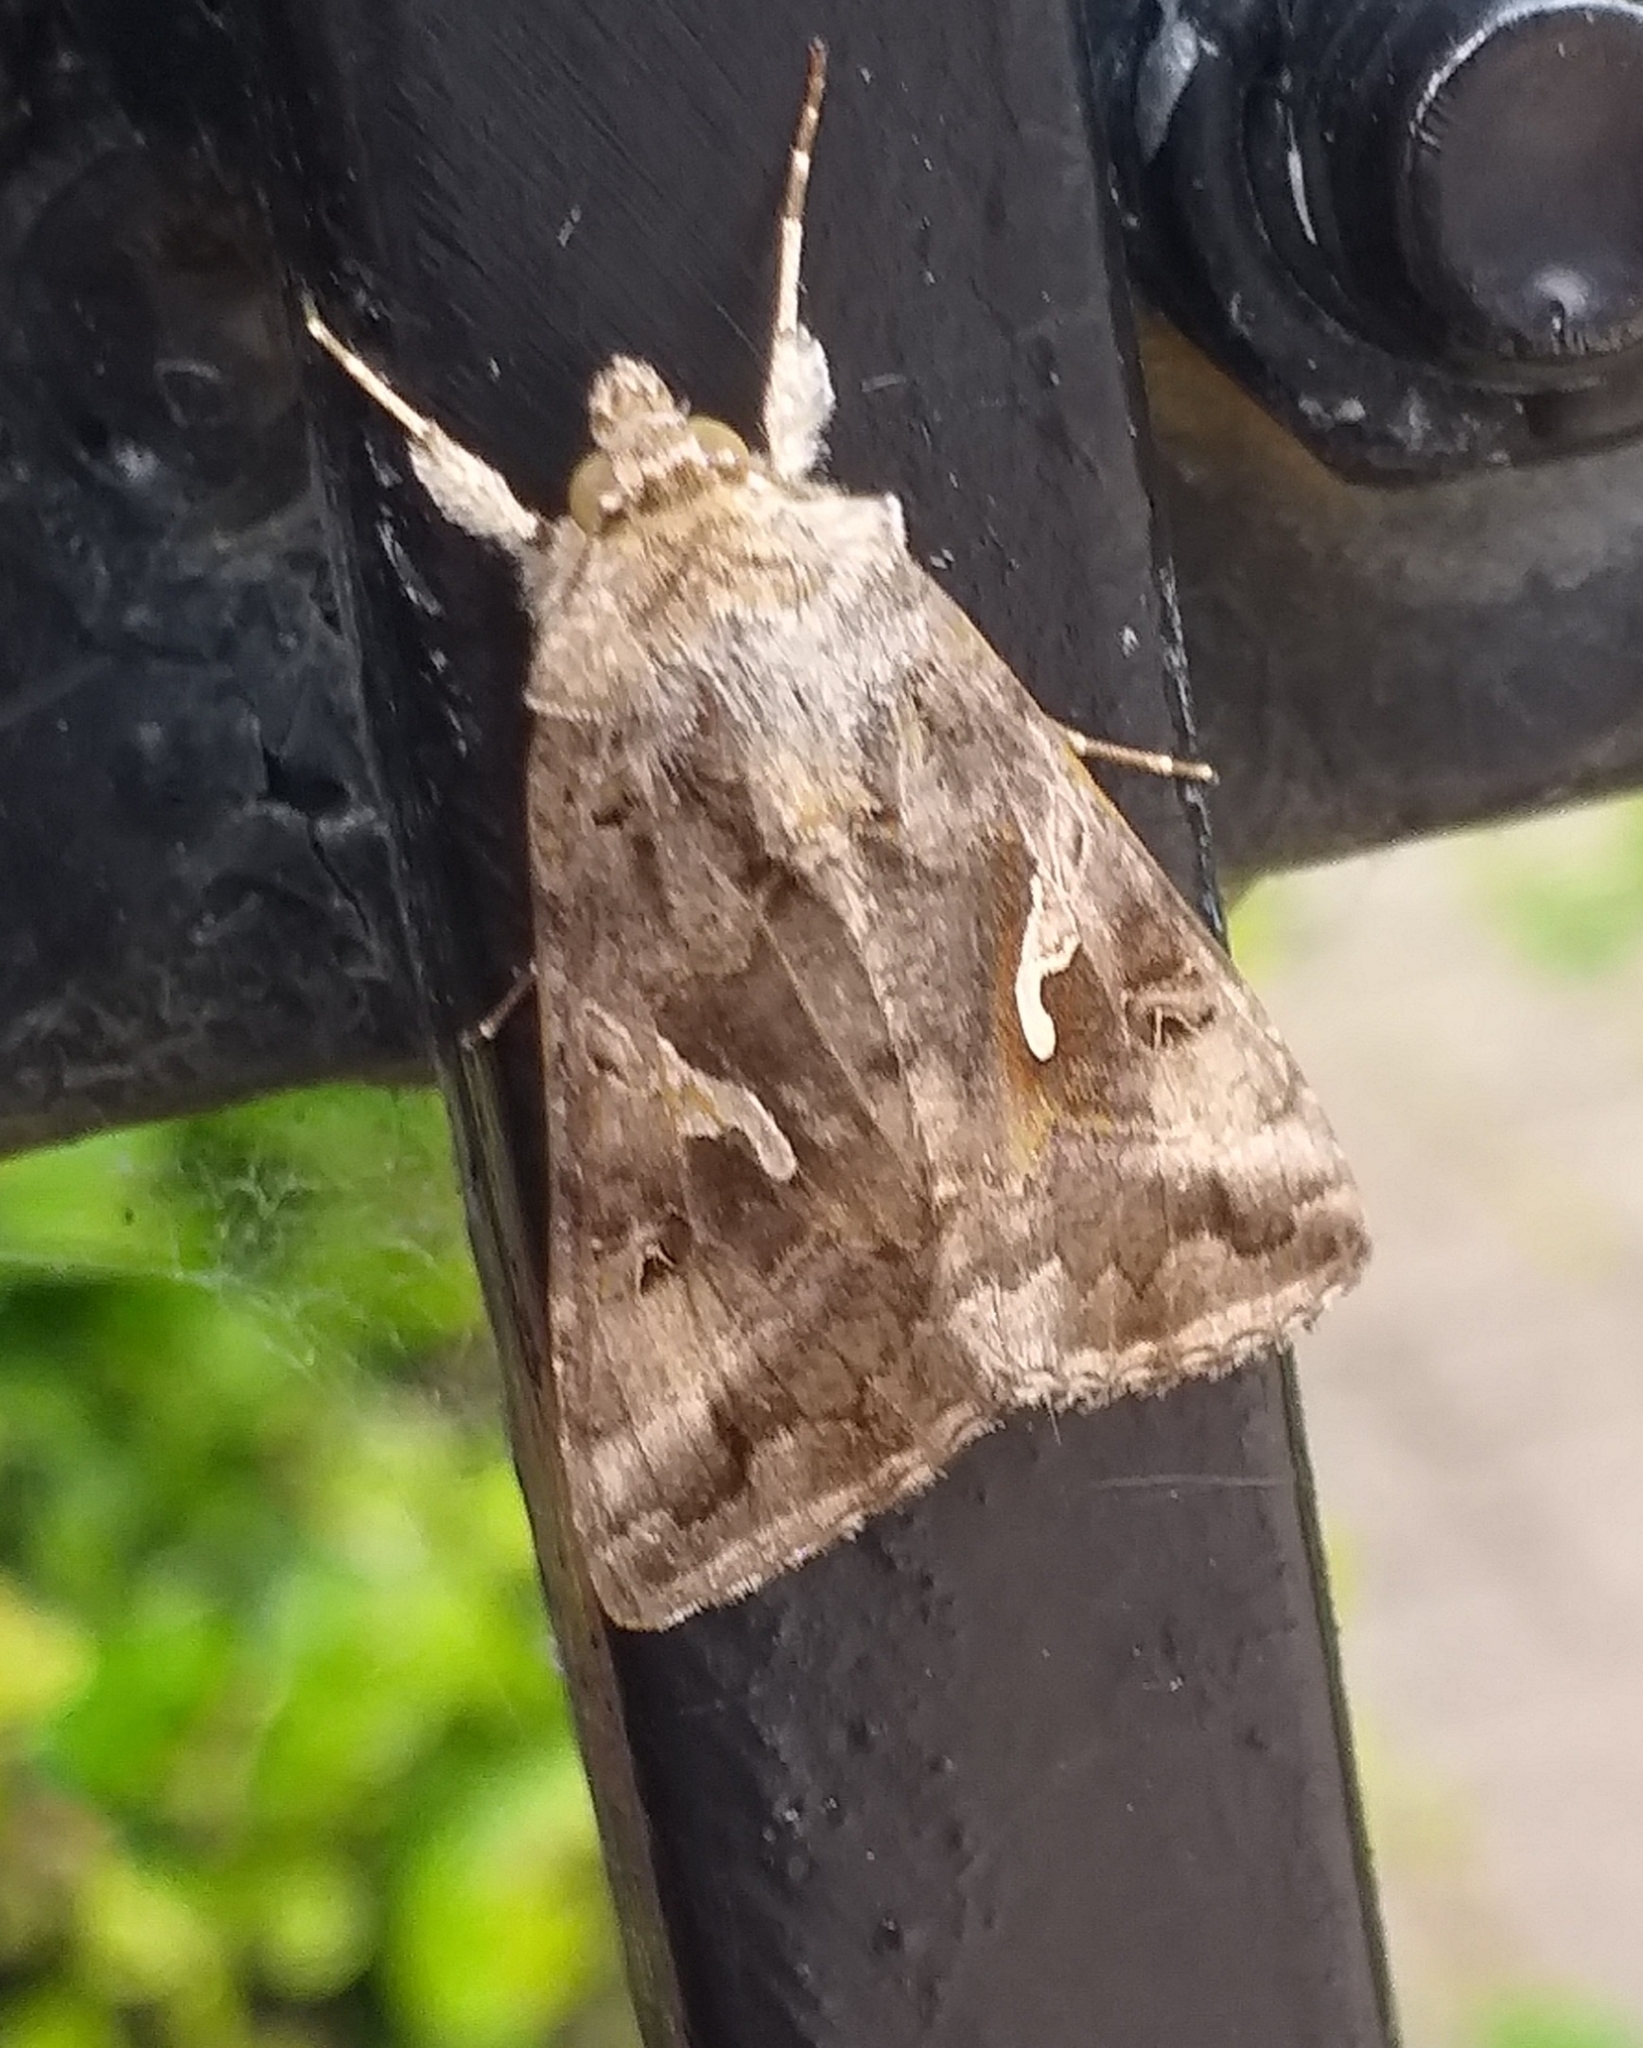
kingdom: Animalia
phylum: Arthropoda
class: Insecta
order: Lepidoptera
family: Noctuidae
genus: Autographa
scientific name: Autographa gamma
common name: Silver y
